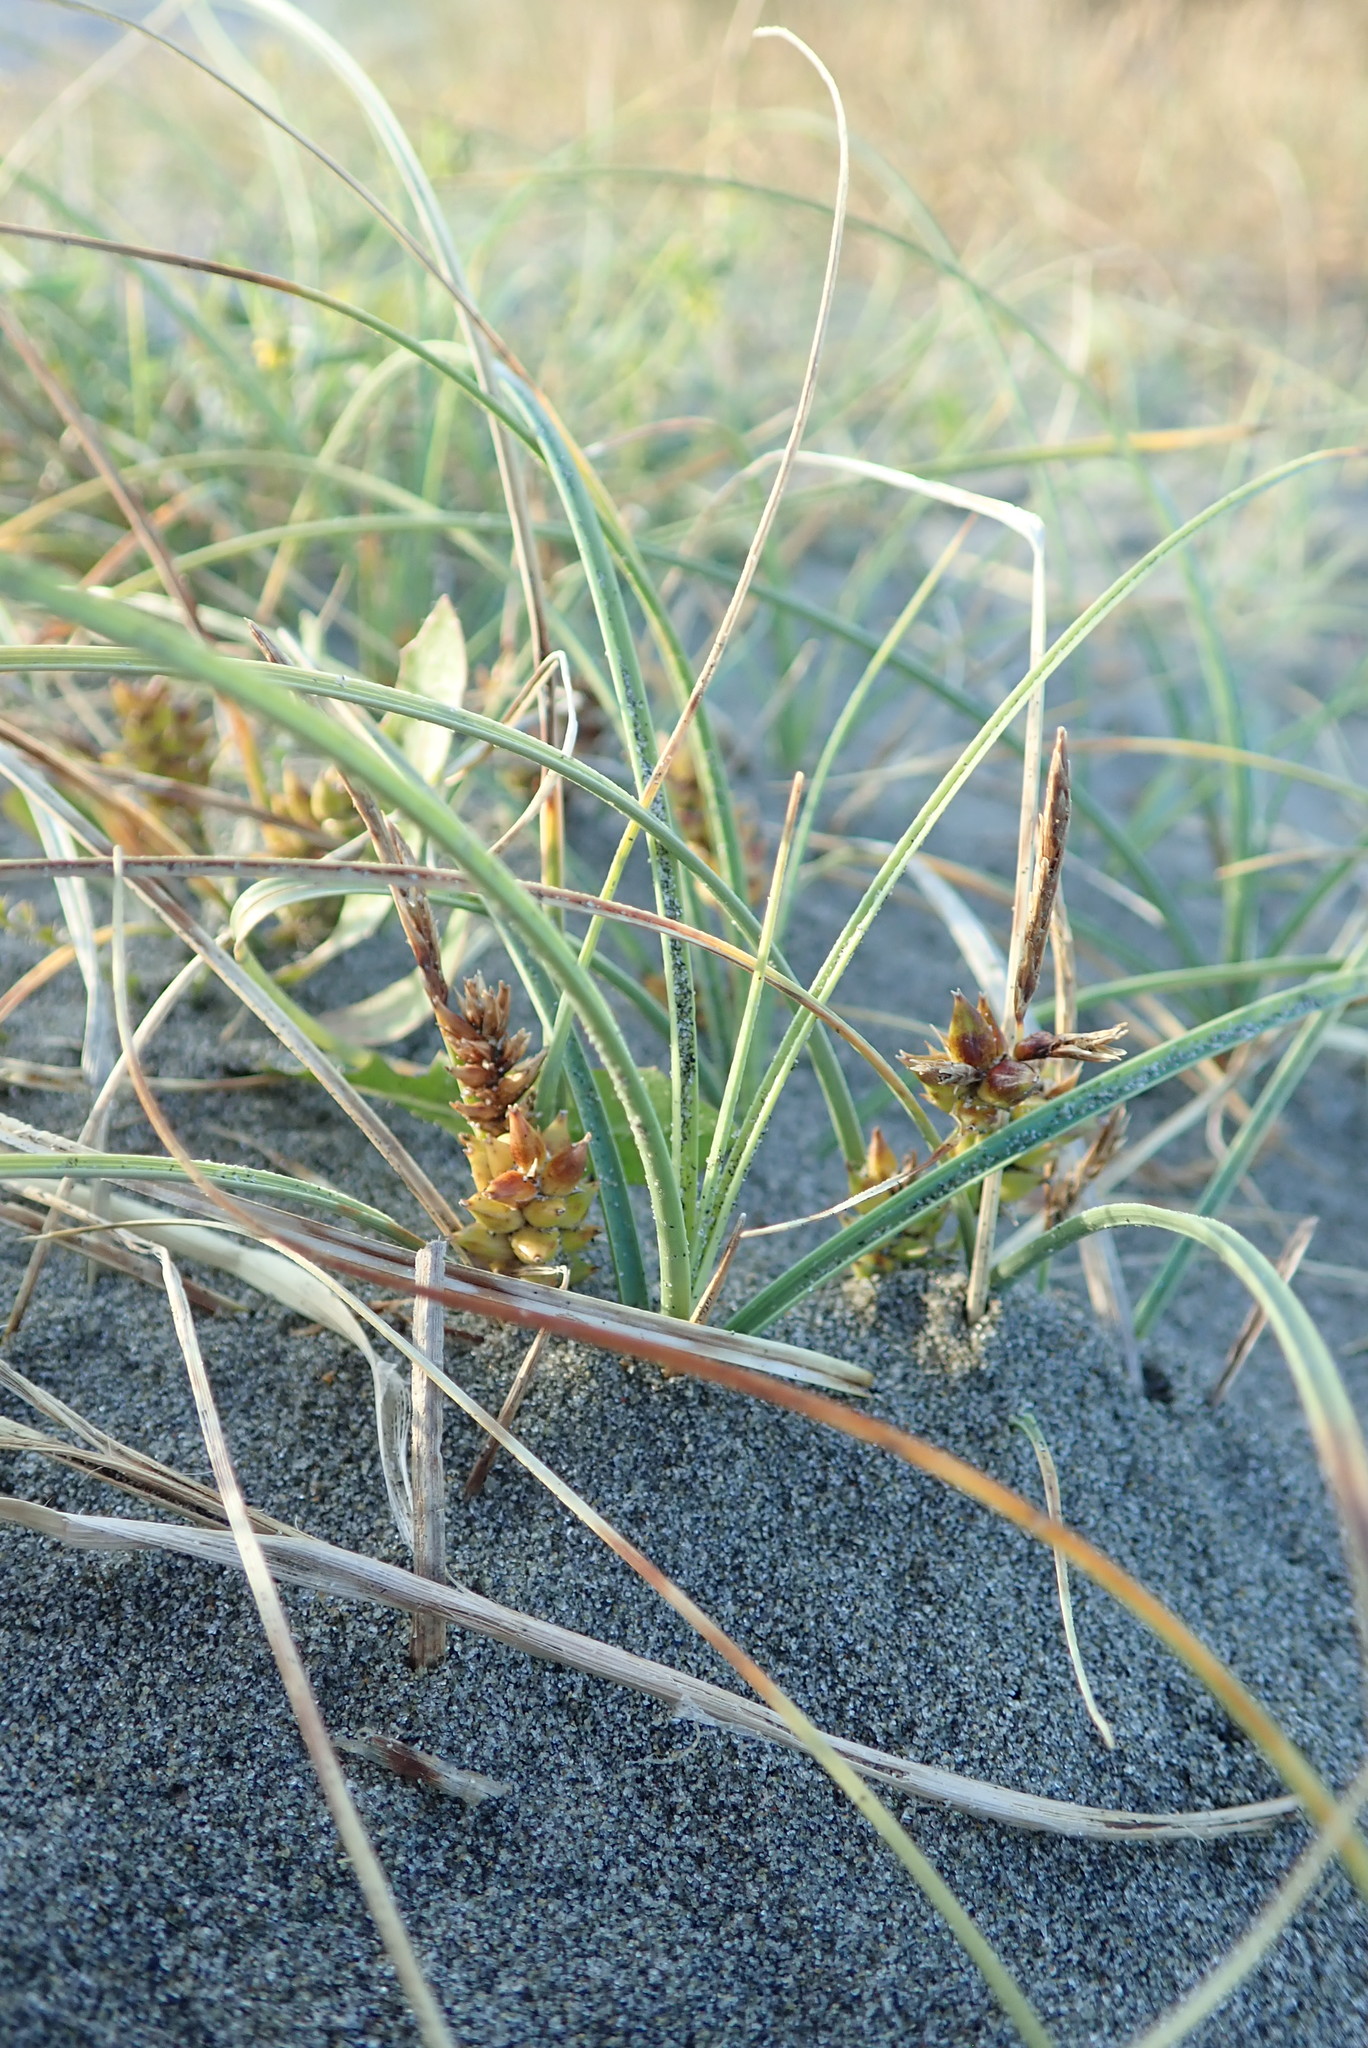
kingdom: Plantae
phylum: Tracheophyta
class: Liliopsida
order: Poales
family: Cyperaceae
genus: Carex
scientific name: Carex pumila
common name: Dwarf sedge
